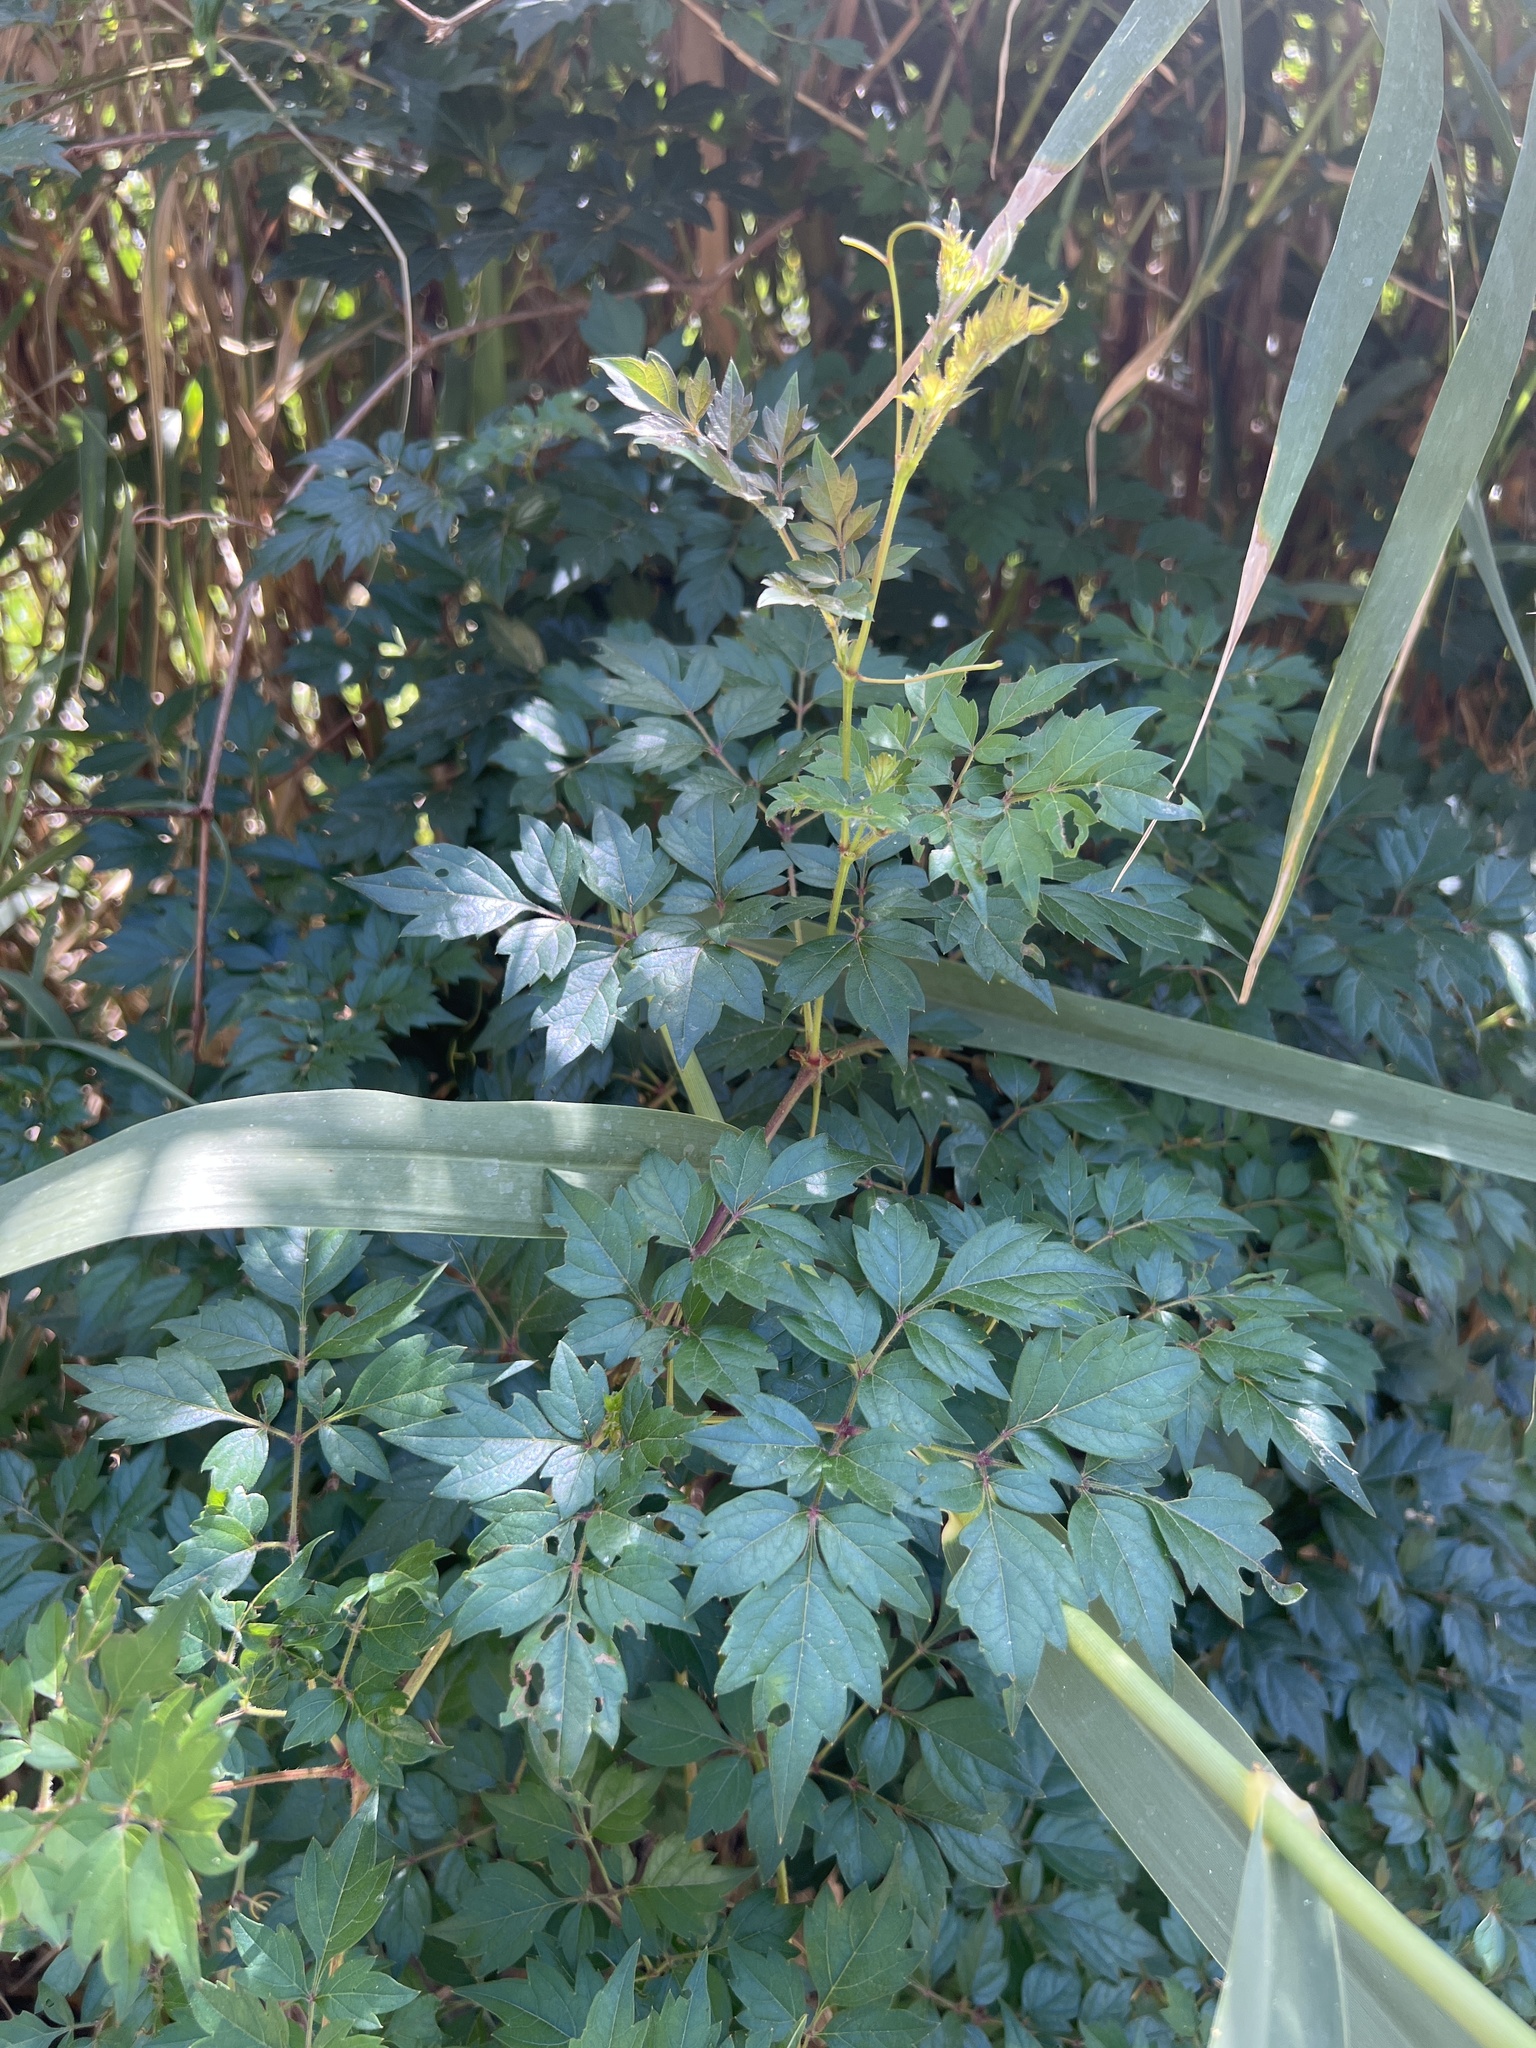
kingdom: Plantae
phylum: Tracheophyta
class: Magnoliopsida
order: Vitales
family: Vitaceae
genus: Nekemias
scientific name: Nekemias arborea
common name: Peppervine
